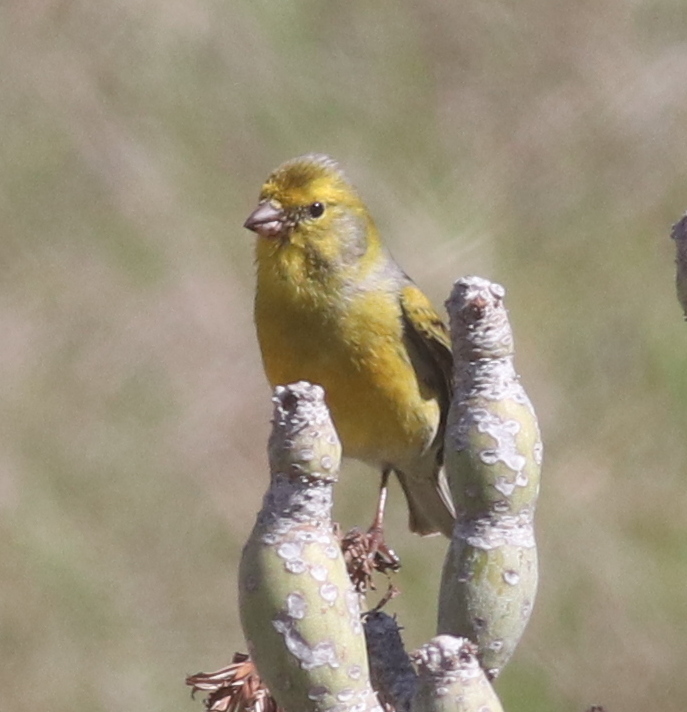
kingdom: Animalia
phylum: Chordata
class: Aves
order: Passeriformes
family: Fringillidae
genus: Serinus
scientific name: Serinus canaria
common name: Atlantic canary
